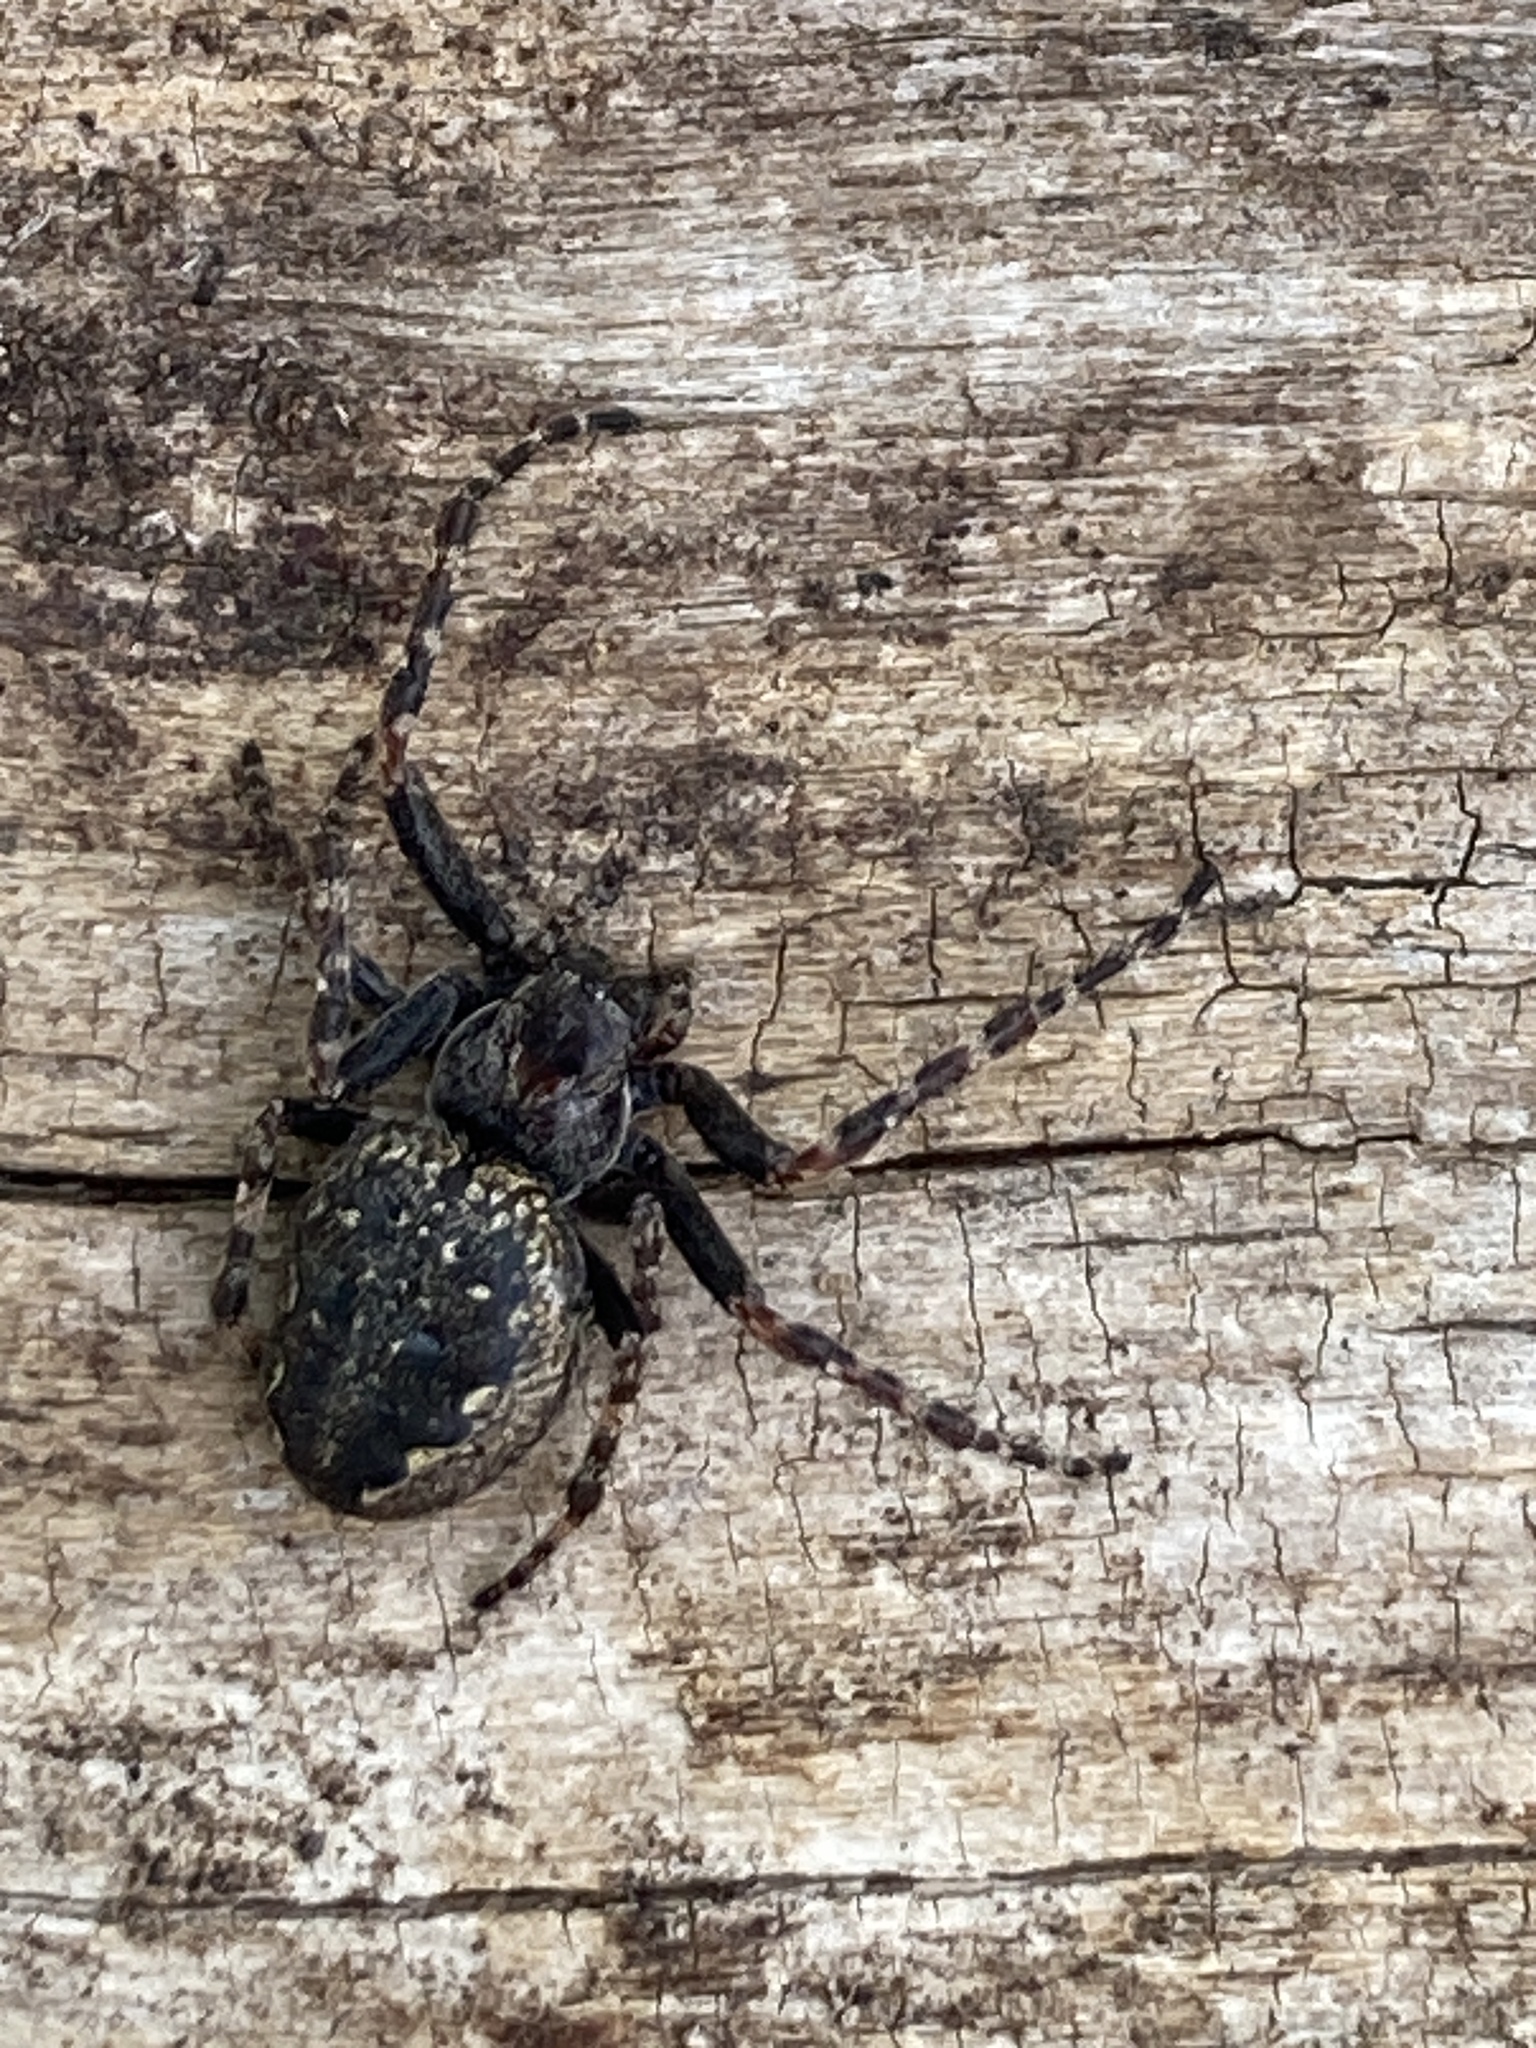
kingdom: Animalia
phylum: Arthropoda
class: Arachnida
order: Araneae
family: Araneidae
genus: Nuctenea
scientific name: Nuctenea umbratica
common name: Toad spider
